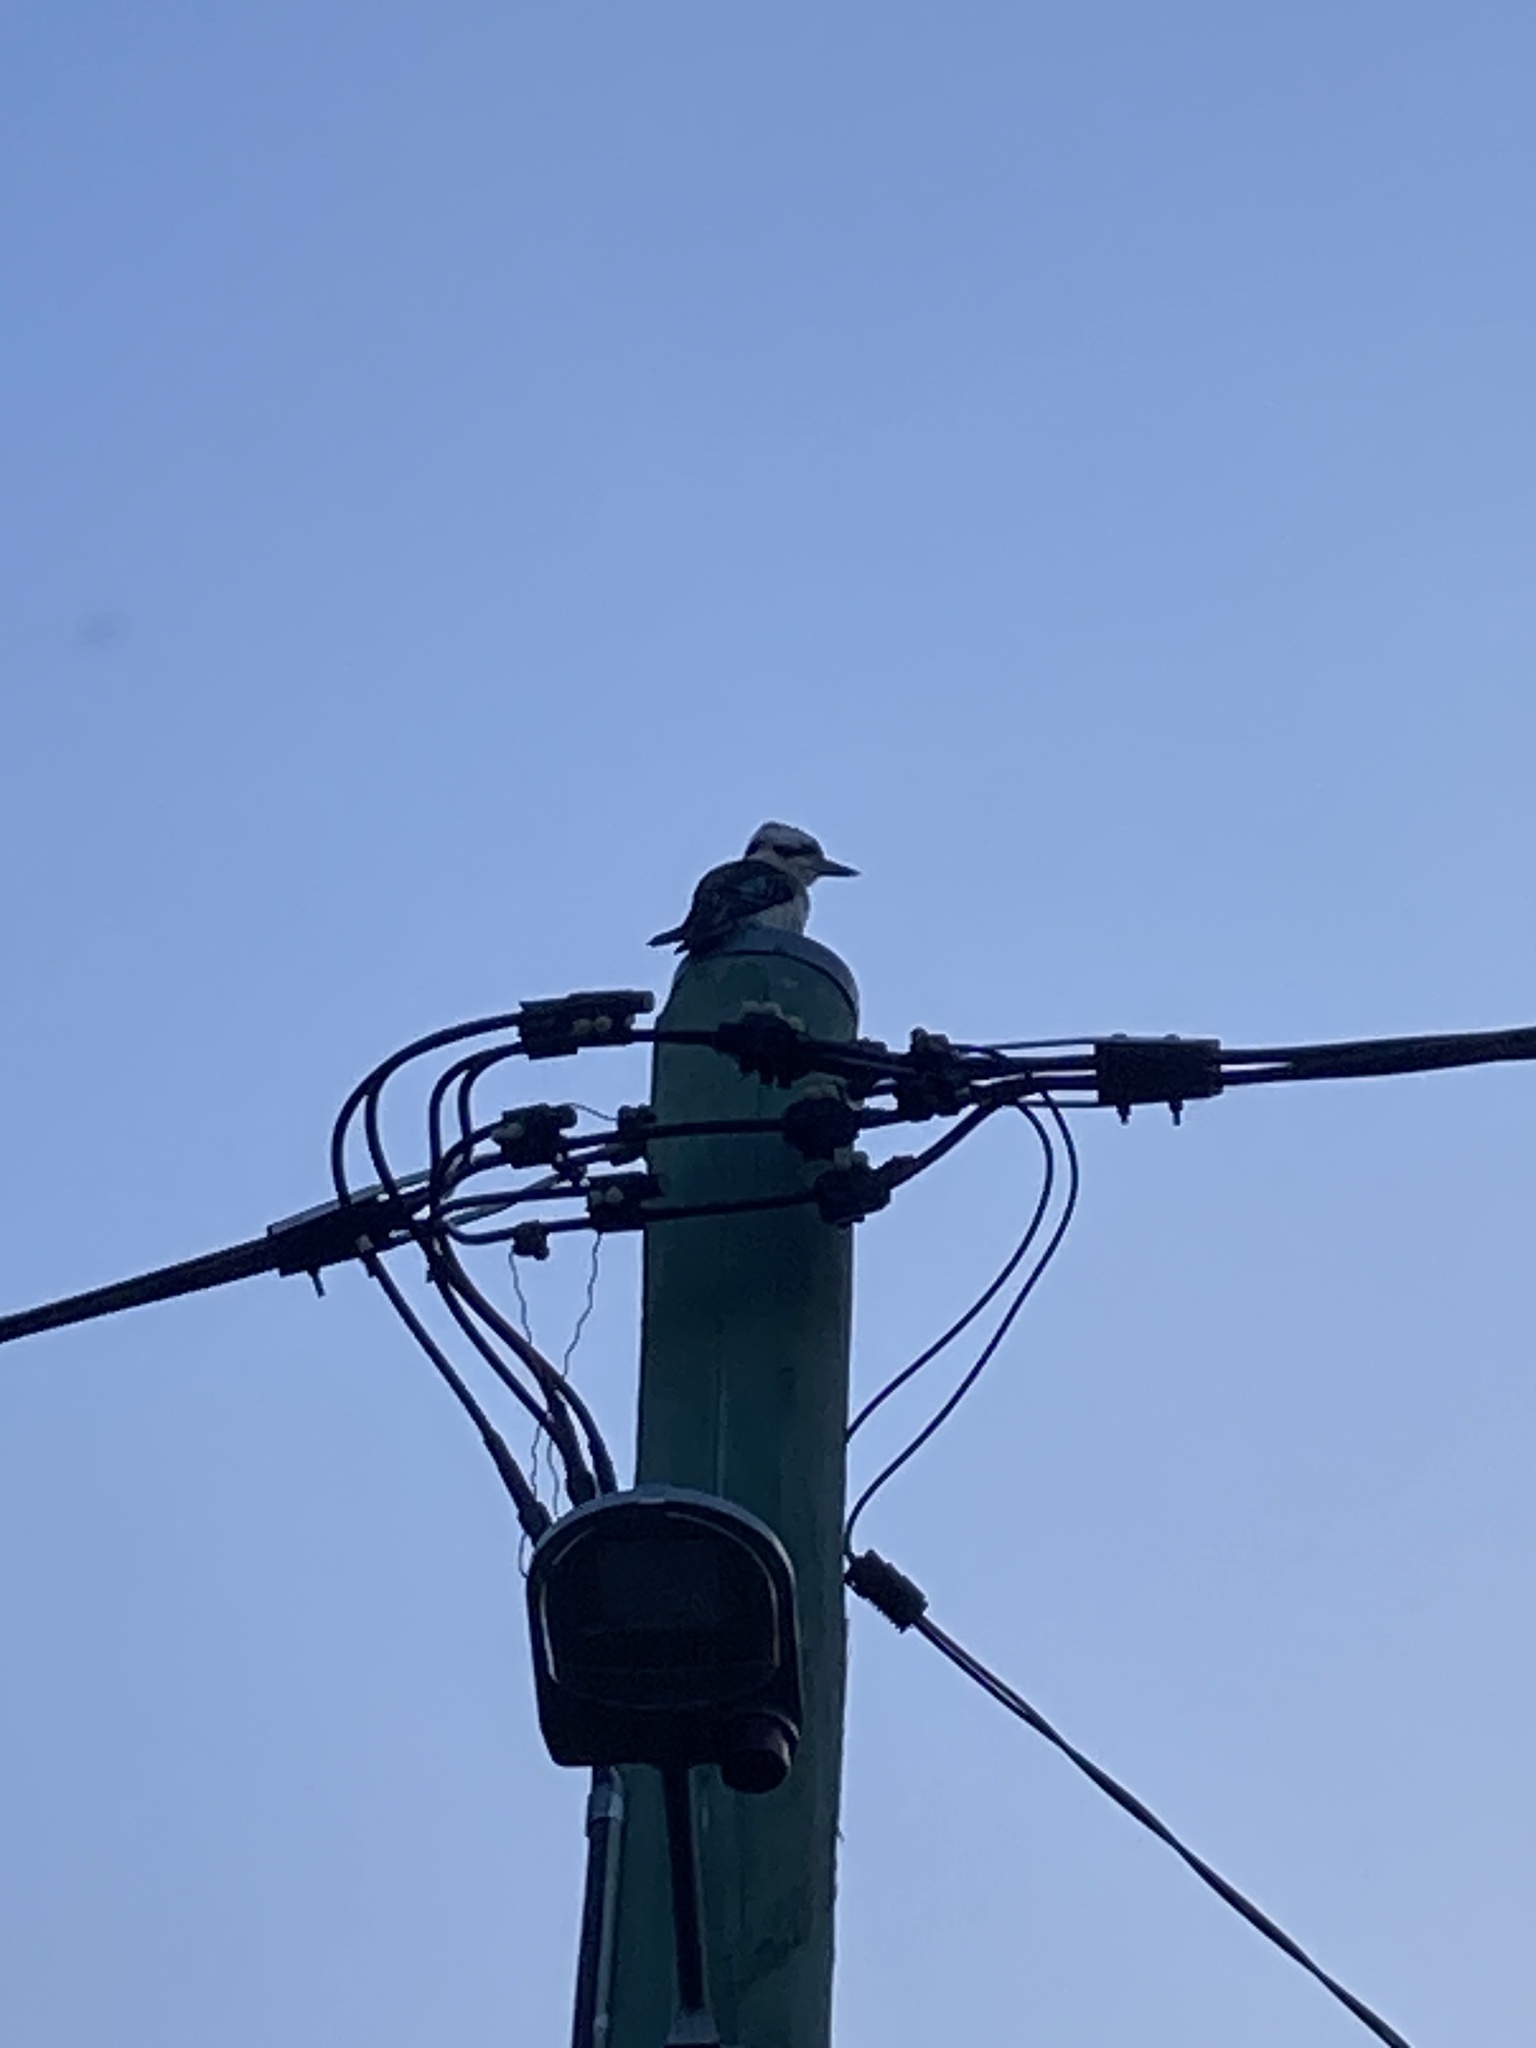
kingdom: Animalia
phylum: Chordata
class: Aves
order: Coraciiformes
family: Alcedinidae
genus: Dacelo
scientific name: Dacelo novaeguineae
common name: Laughing kookaburra
